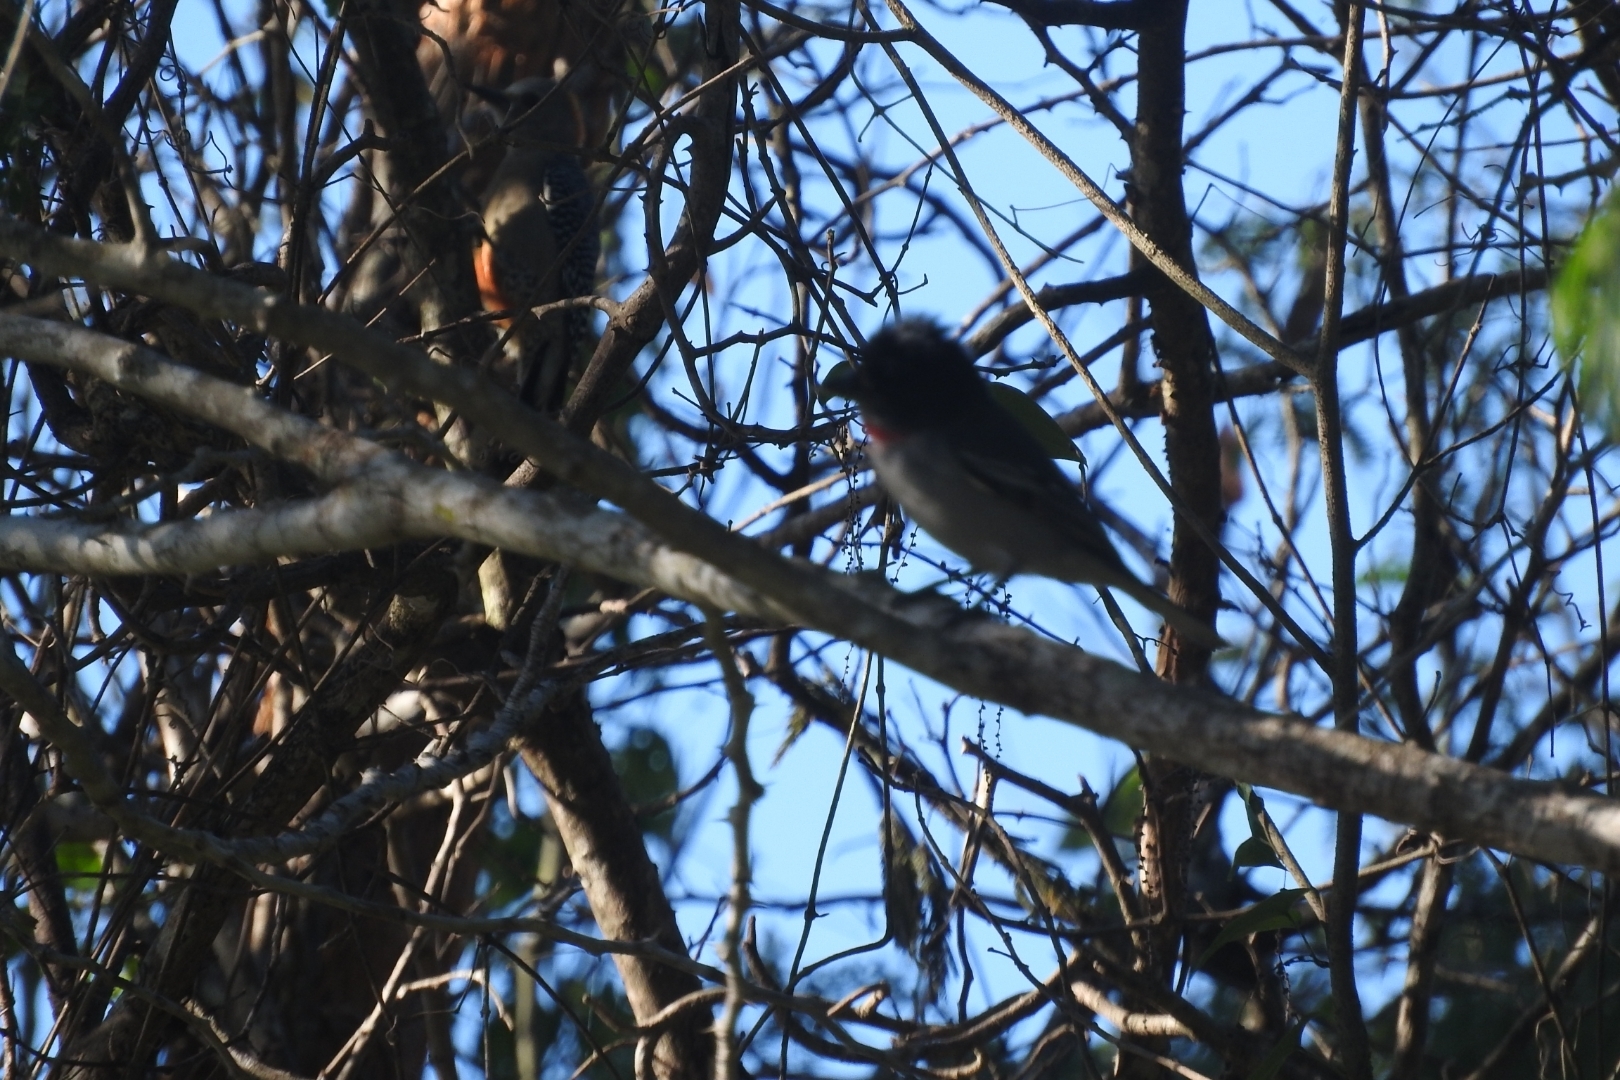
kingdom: Animalia
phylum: Chordata
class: Aves
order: Passeriformes
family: Cardinalidae
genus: Pheucticus
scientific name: Pheucticus ludovicianus
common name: Rose-breasted grosbeak
